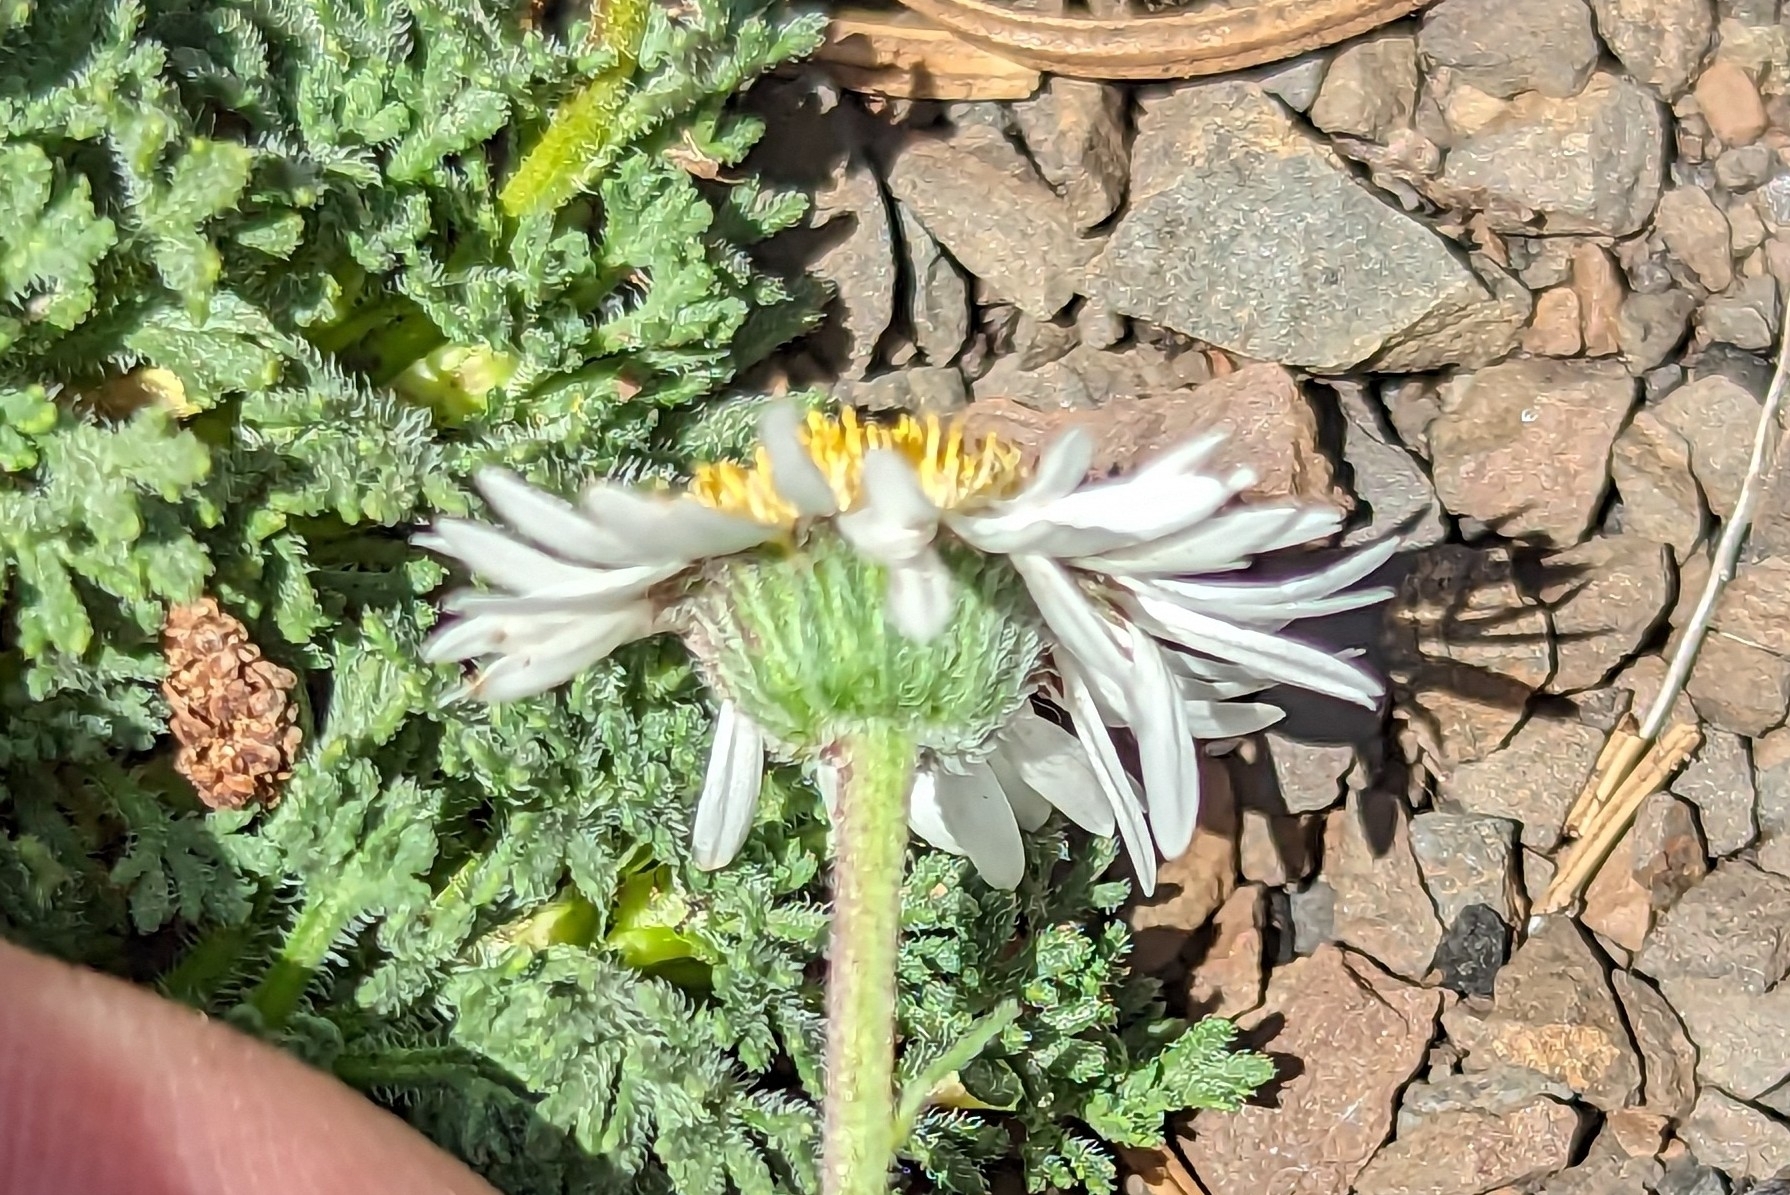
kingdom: Plantae
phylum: Tracheophyta
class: Magnoliopsida
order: Asterales
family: Asteraceae
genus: Erigeron
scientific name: Erigeron compositus
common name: Dwarf mountain fleabane
